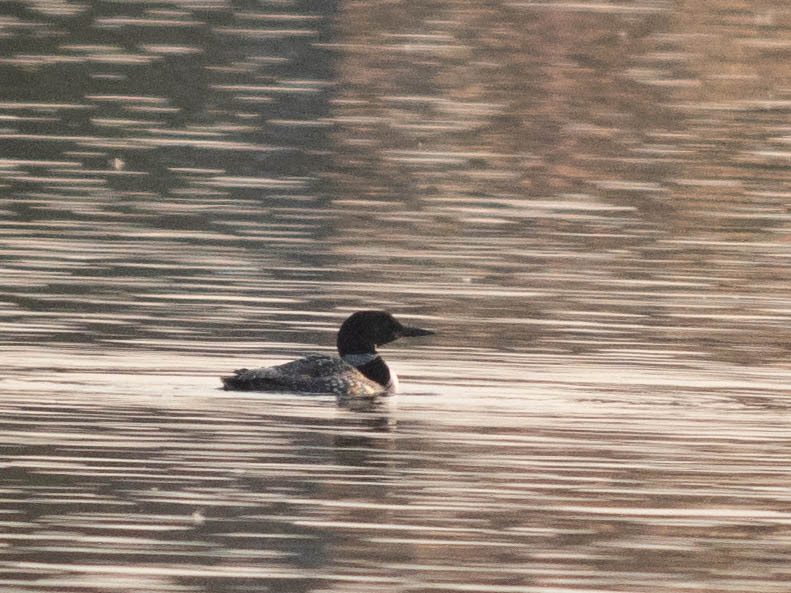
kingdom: Animalia
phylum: Chordata
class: Aves
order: Gaviiformes
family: Gaviidae
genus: Gavia
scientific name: Gavia immer
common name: Common loon
